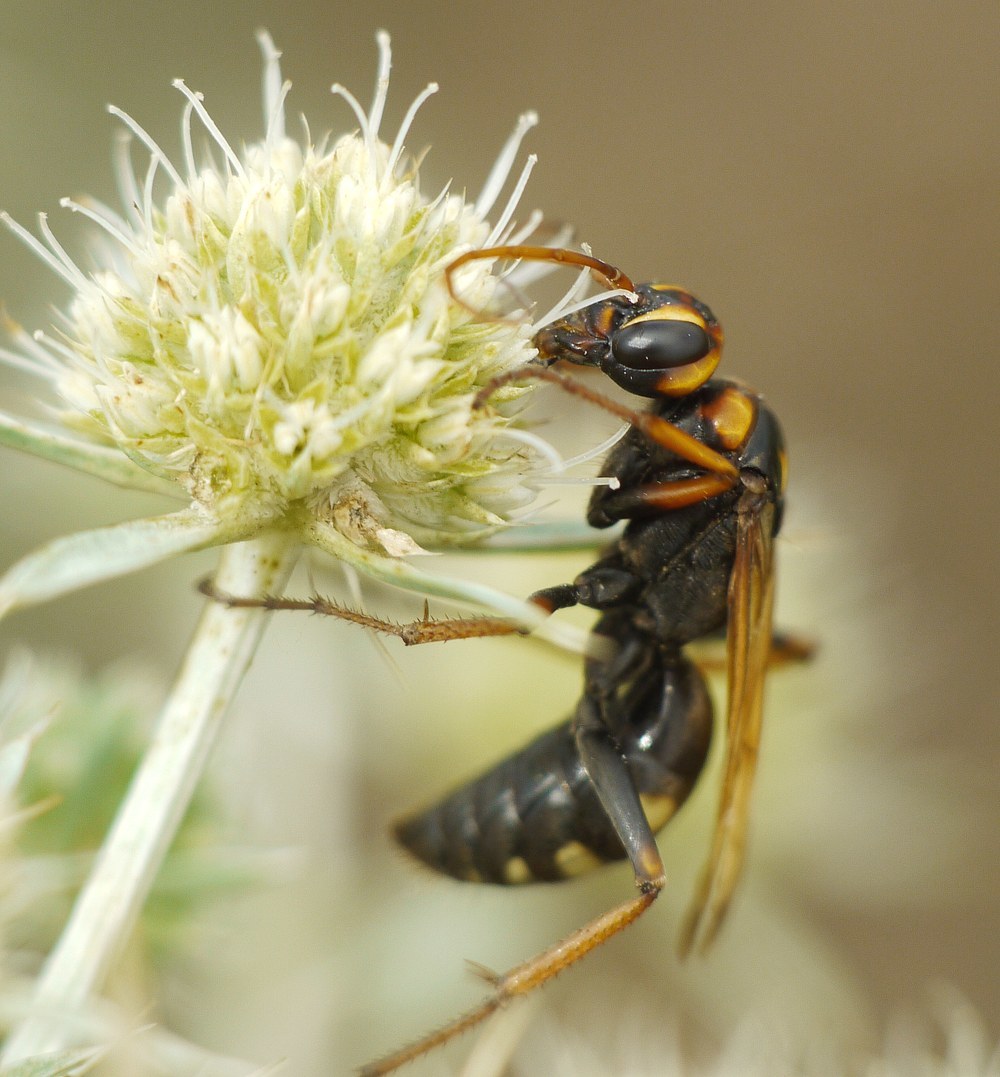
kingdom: Animalia
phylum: Arthropoda
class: Insecta
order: Hymenoptera
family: Pompilidae
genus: Cryptocheilus
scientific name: Cryptocheilus octomaculatus
